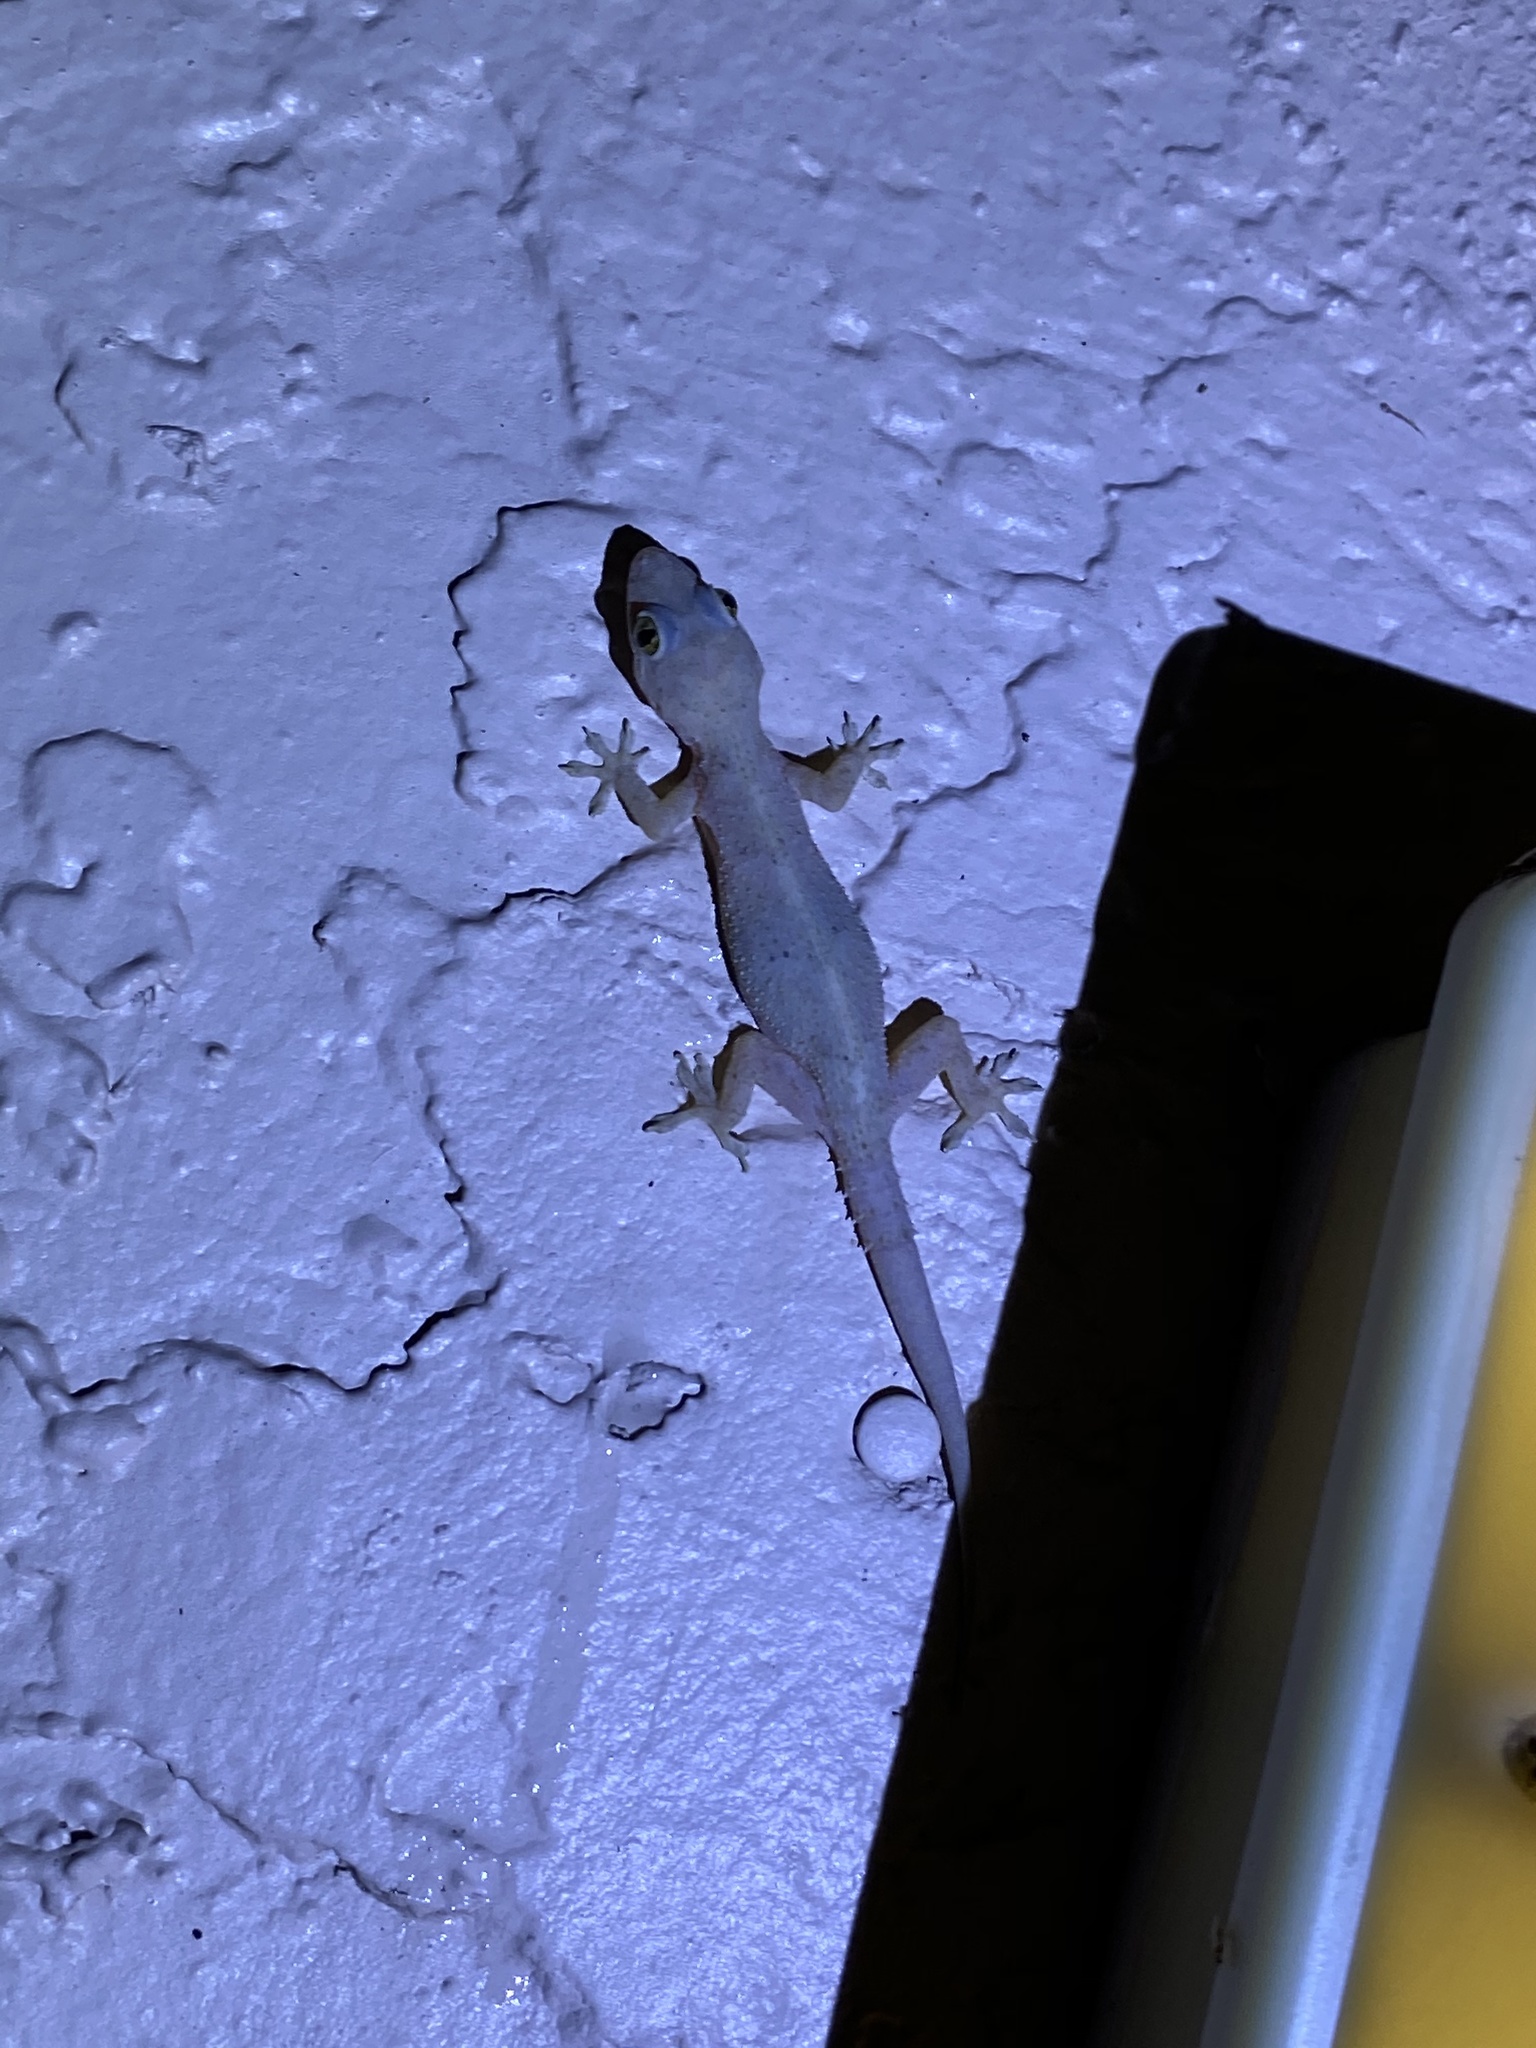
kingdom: Animalia
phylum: Chordata
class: Squamata
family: Gekkonidae
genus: Hemidactylus
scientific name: Hemidactylus mabouia
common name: House gecko
